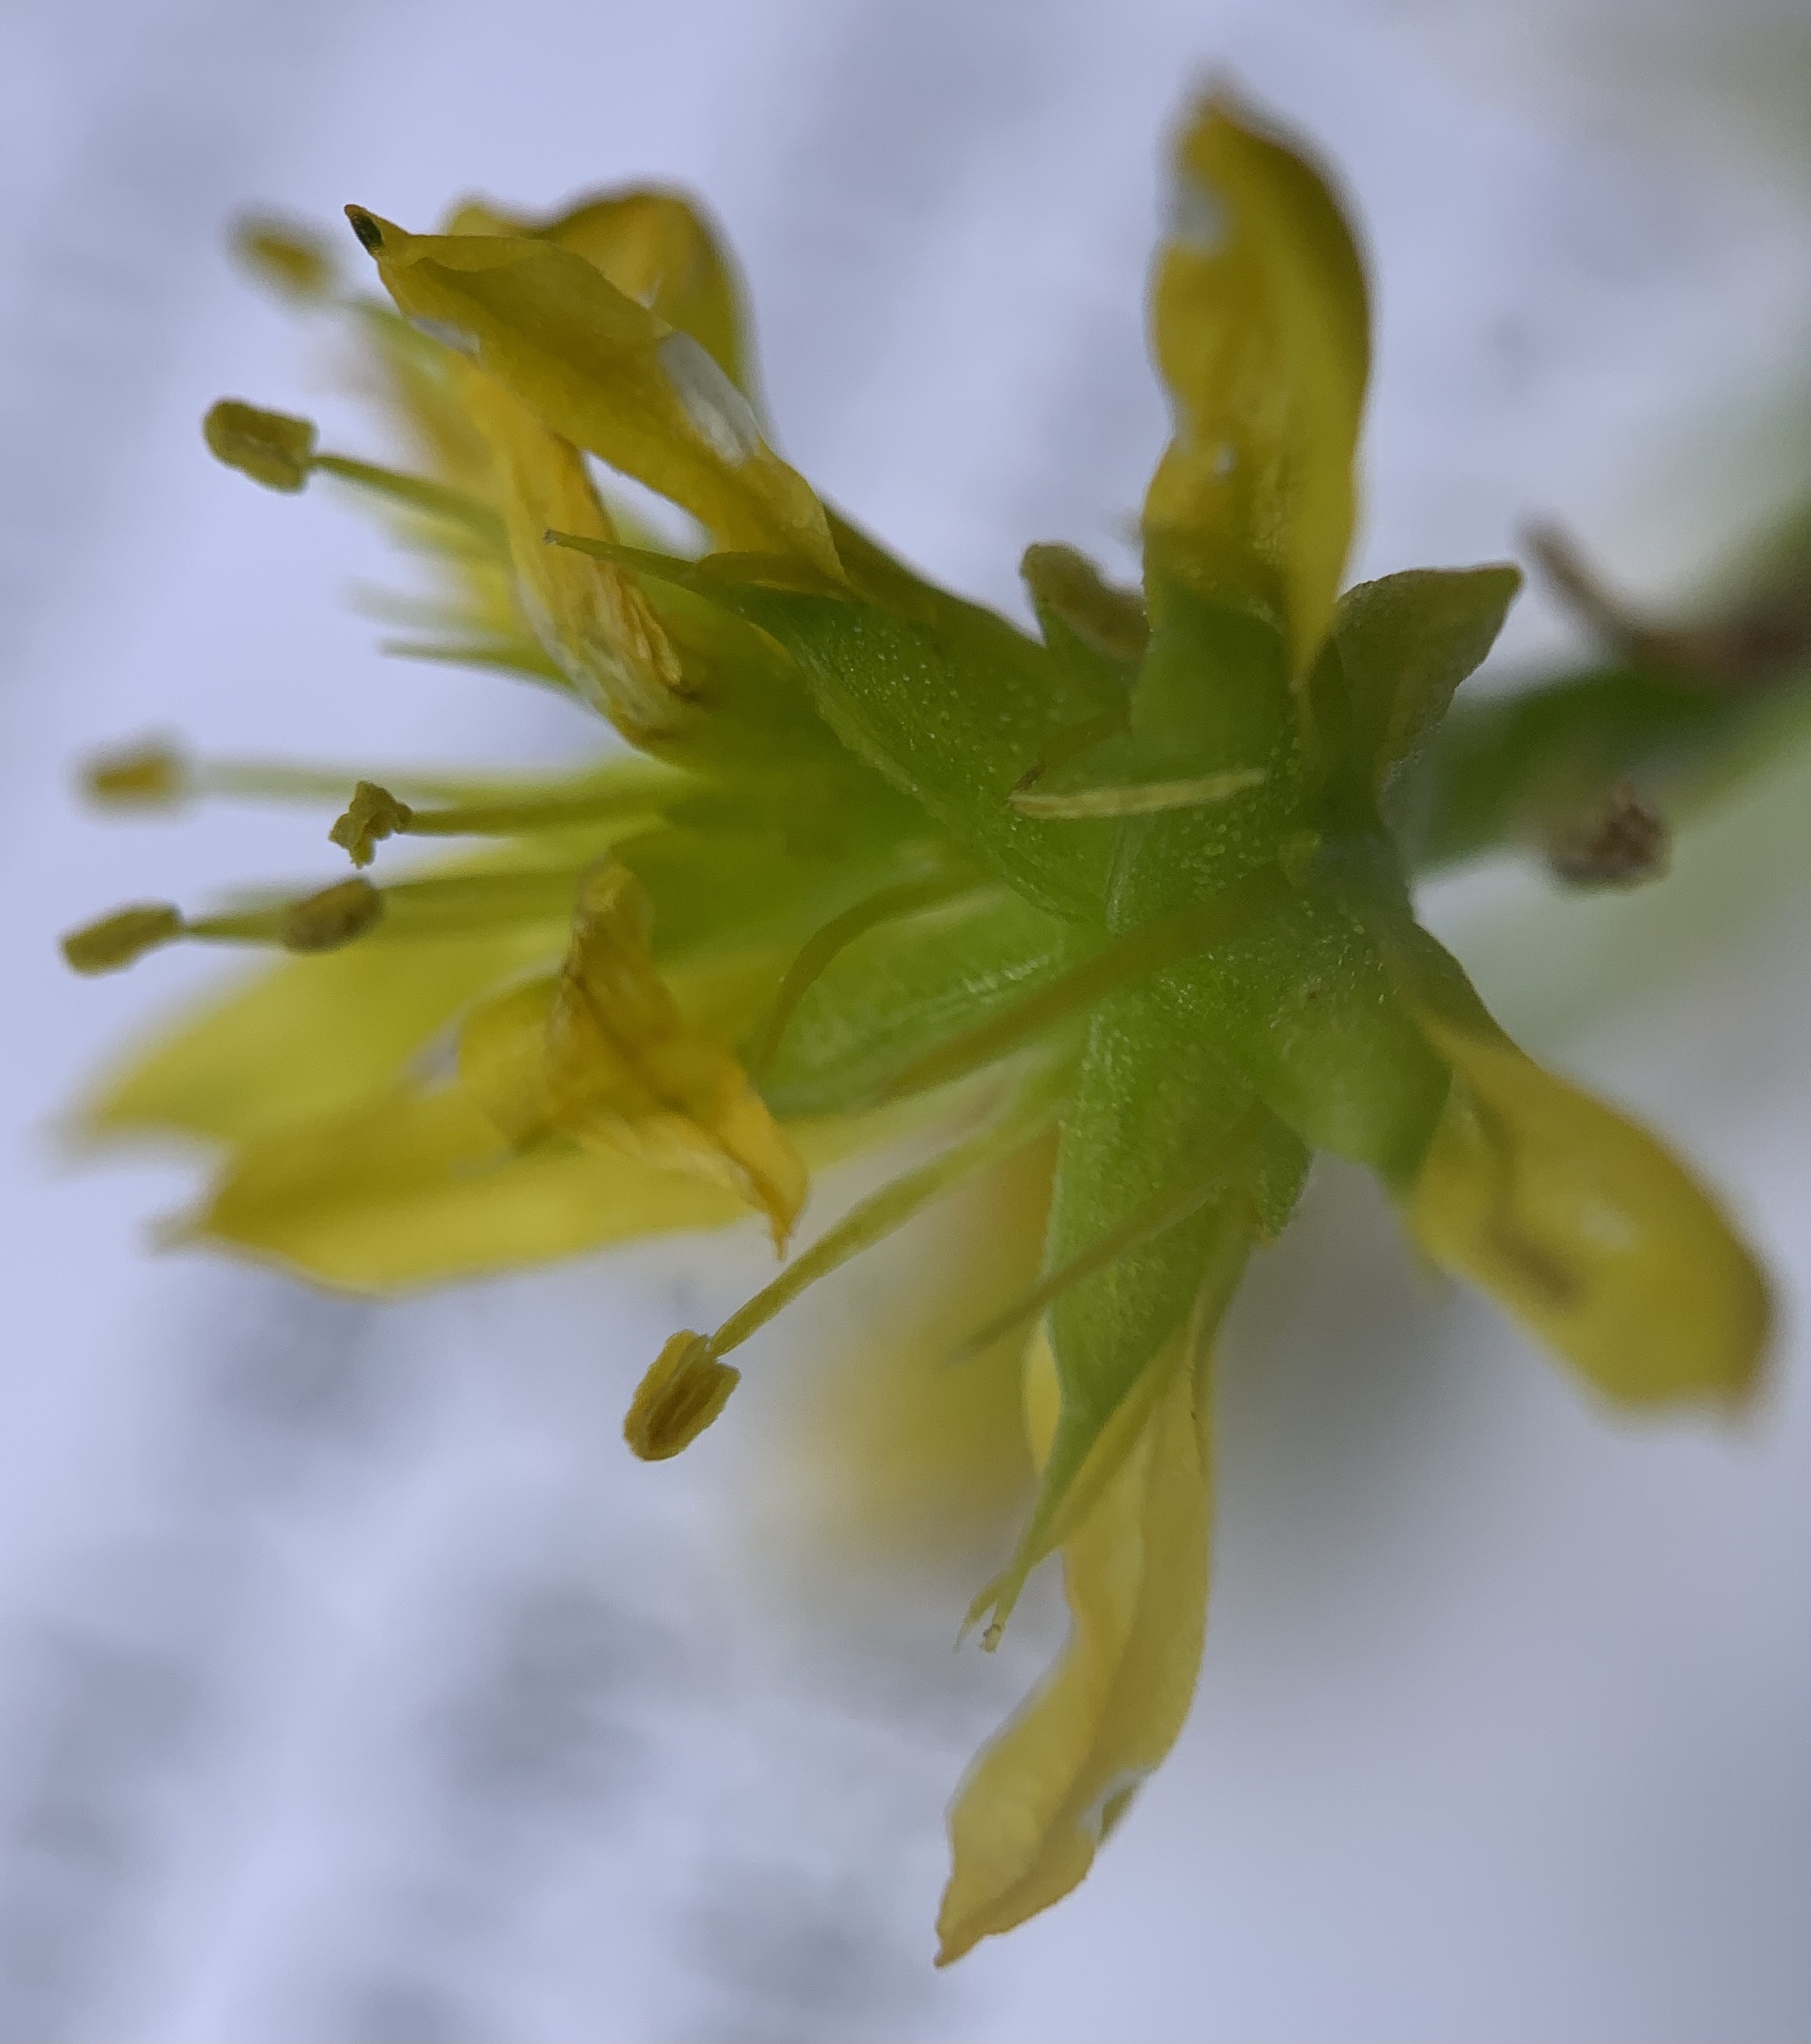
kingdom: Plantae
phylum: Tracheophyta
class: Magnoliopsida
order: Saxifragales
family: Crassulaceae
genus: Sedum
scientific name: Sedum stenopetalum
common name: Narrow-petaled stonecrop
